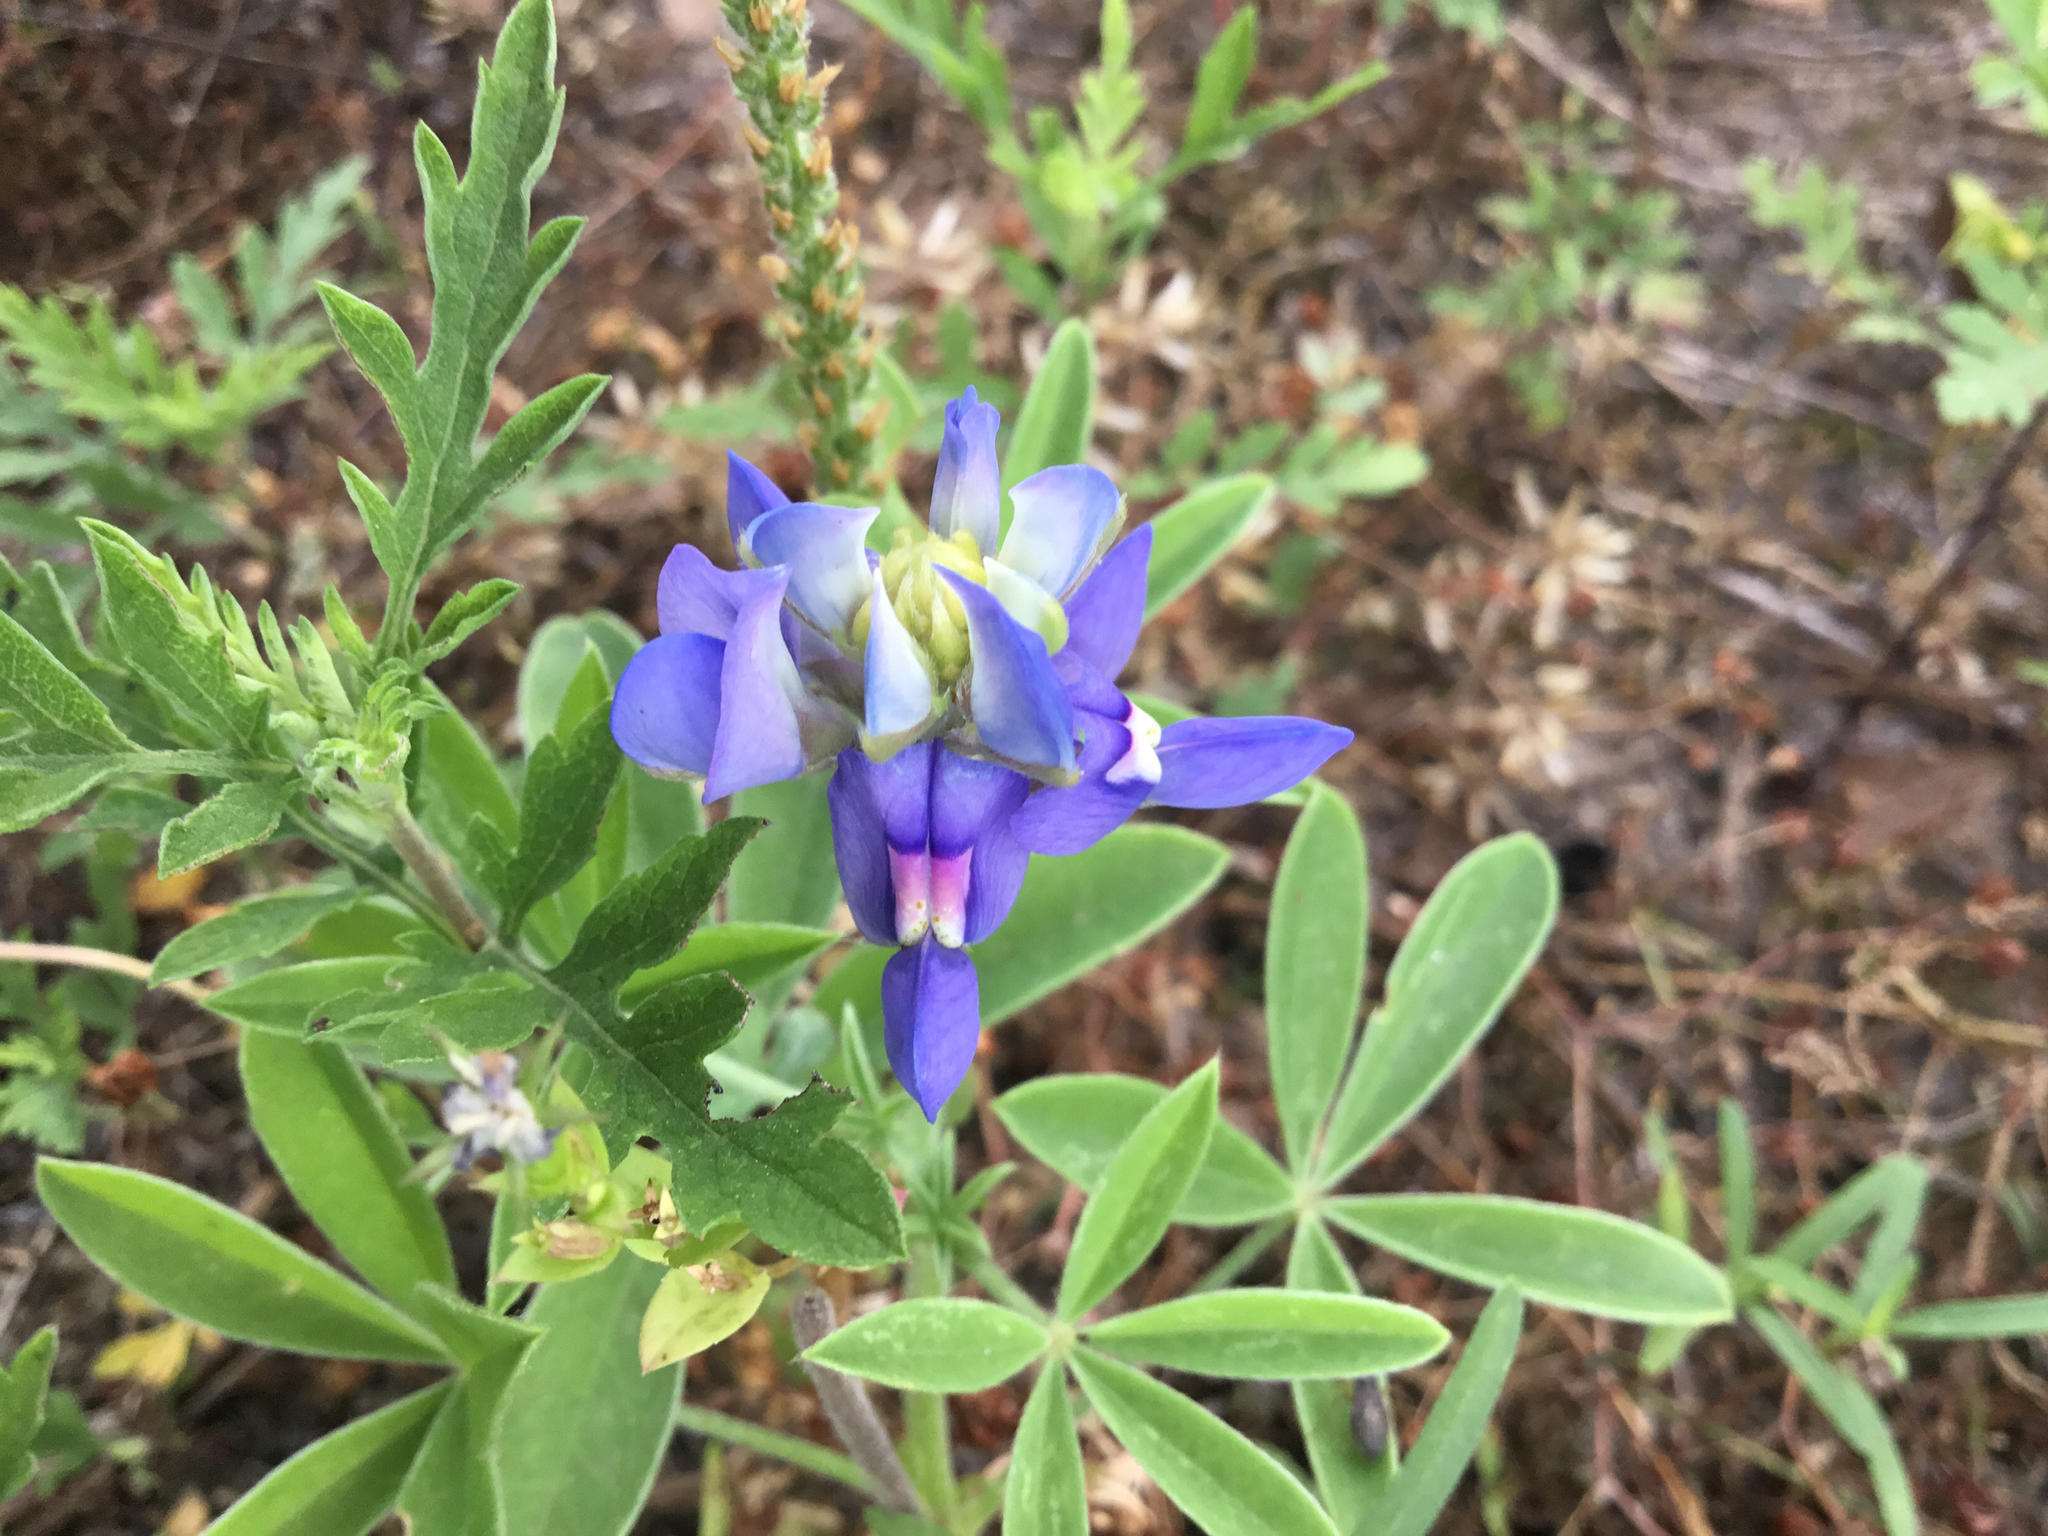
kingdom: Plantae
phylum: Tracheophyta
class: Magnoliopsida
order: Fabales
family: Fabaceae
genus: Lupinus
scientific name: Lupinus texensis
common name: Texas bluebonnet
